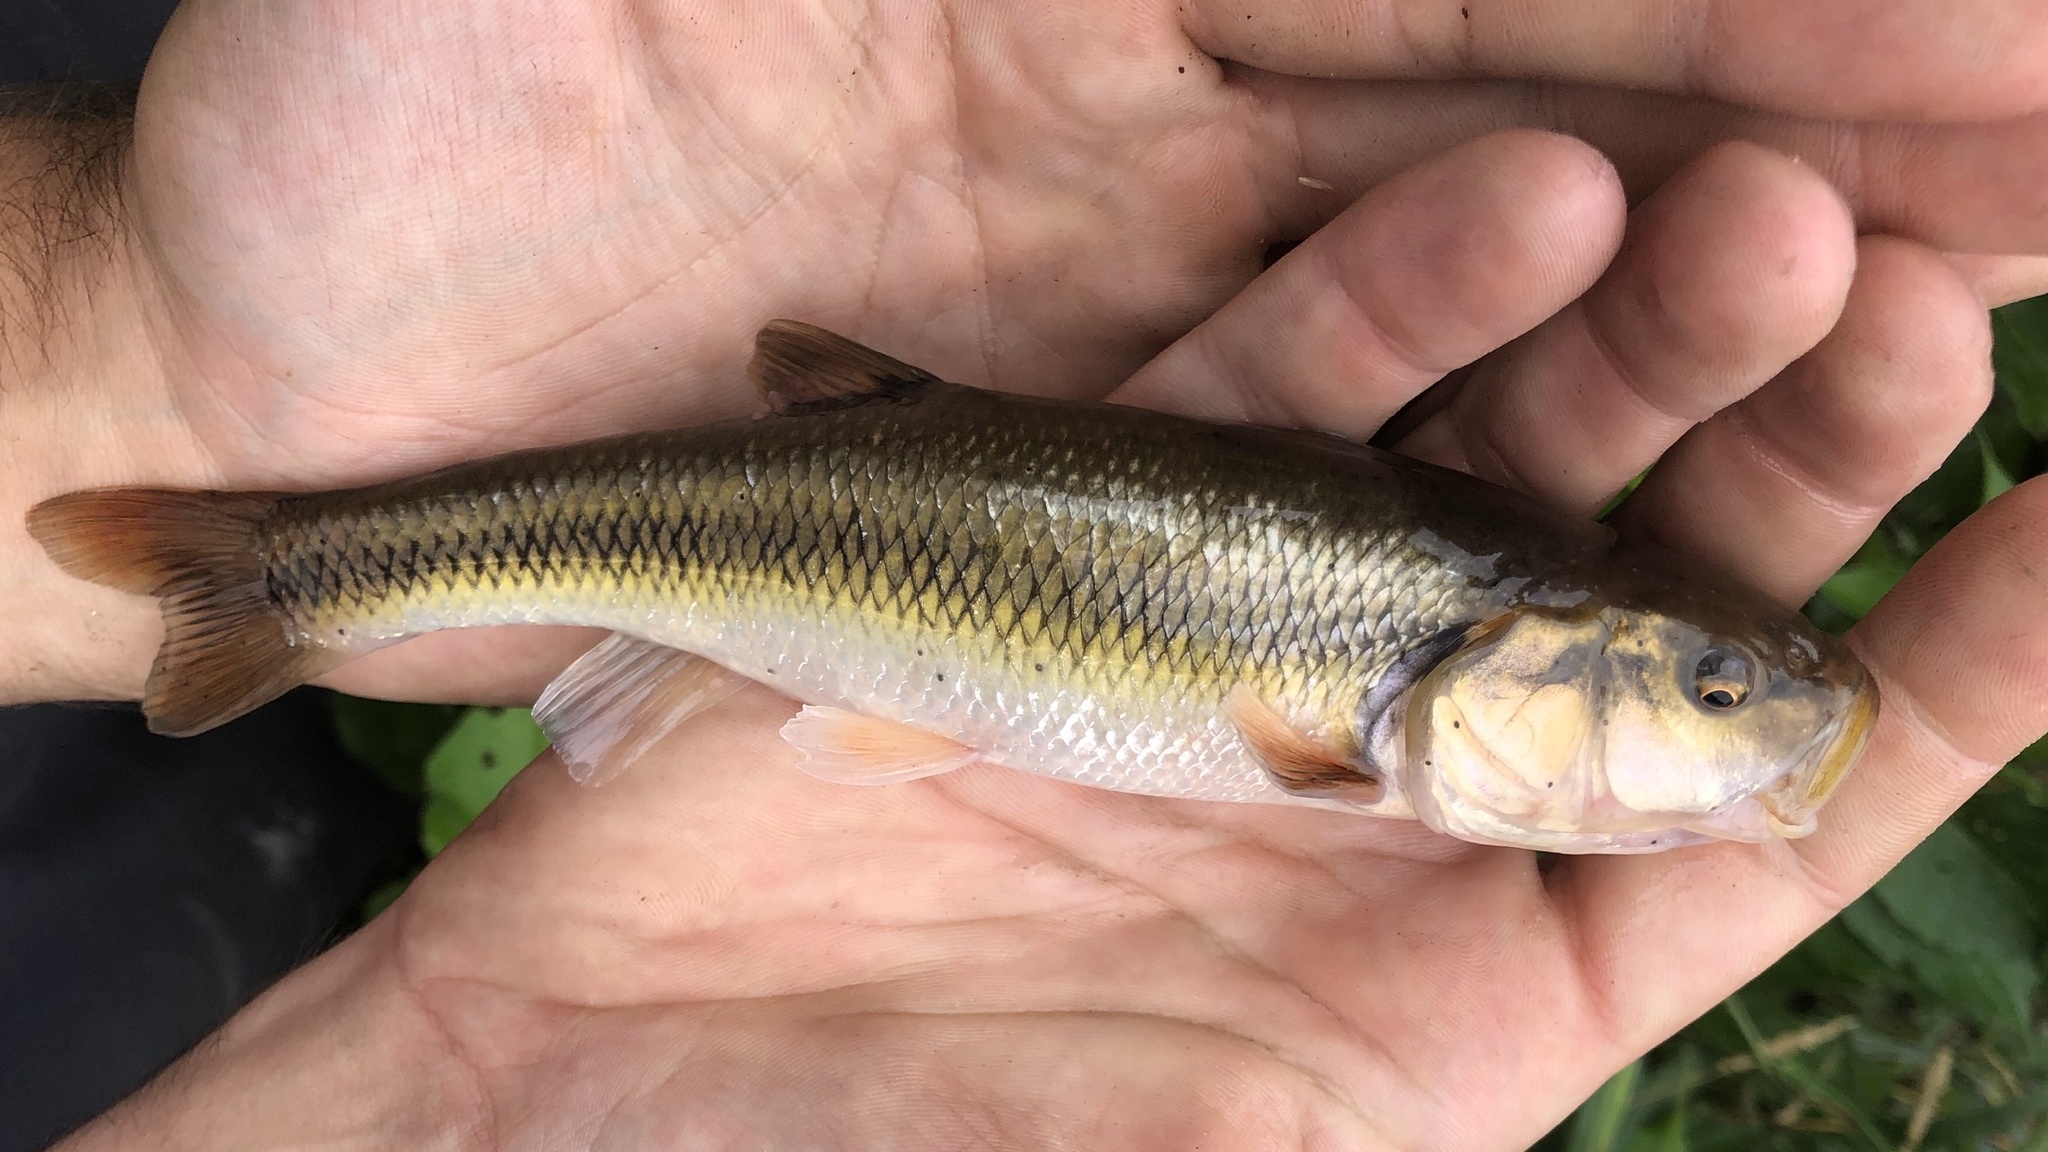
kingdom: Animalia
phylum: Chordata
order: Cypriniformes
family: Cyprinidae
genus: Semotilus
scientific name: Semotilus atromaculatus
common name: Creek chub
